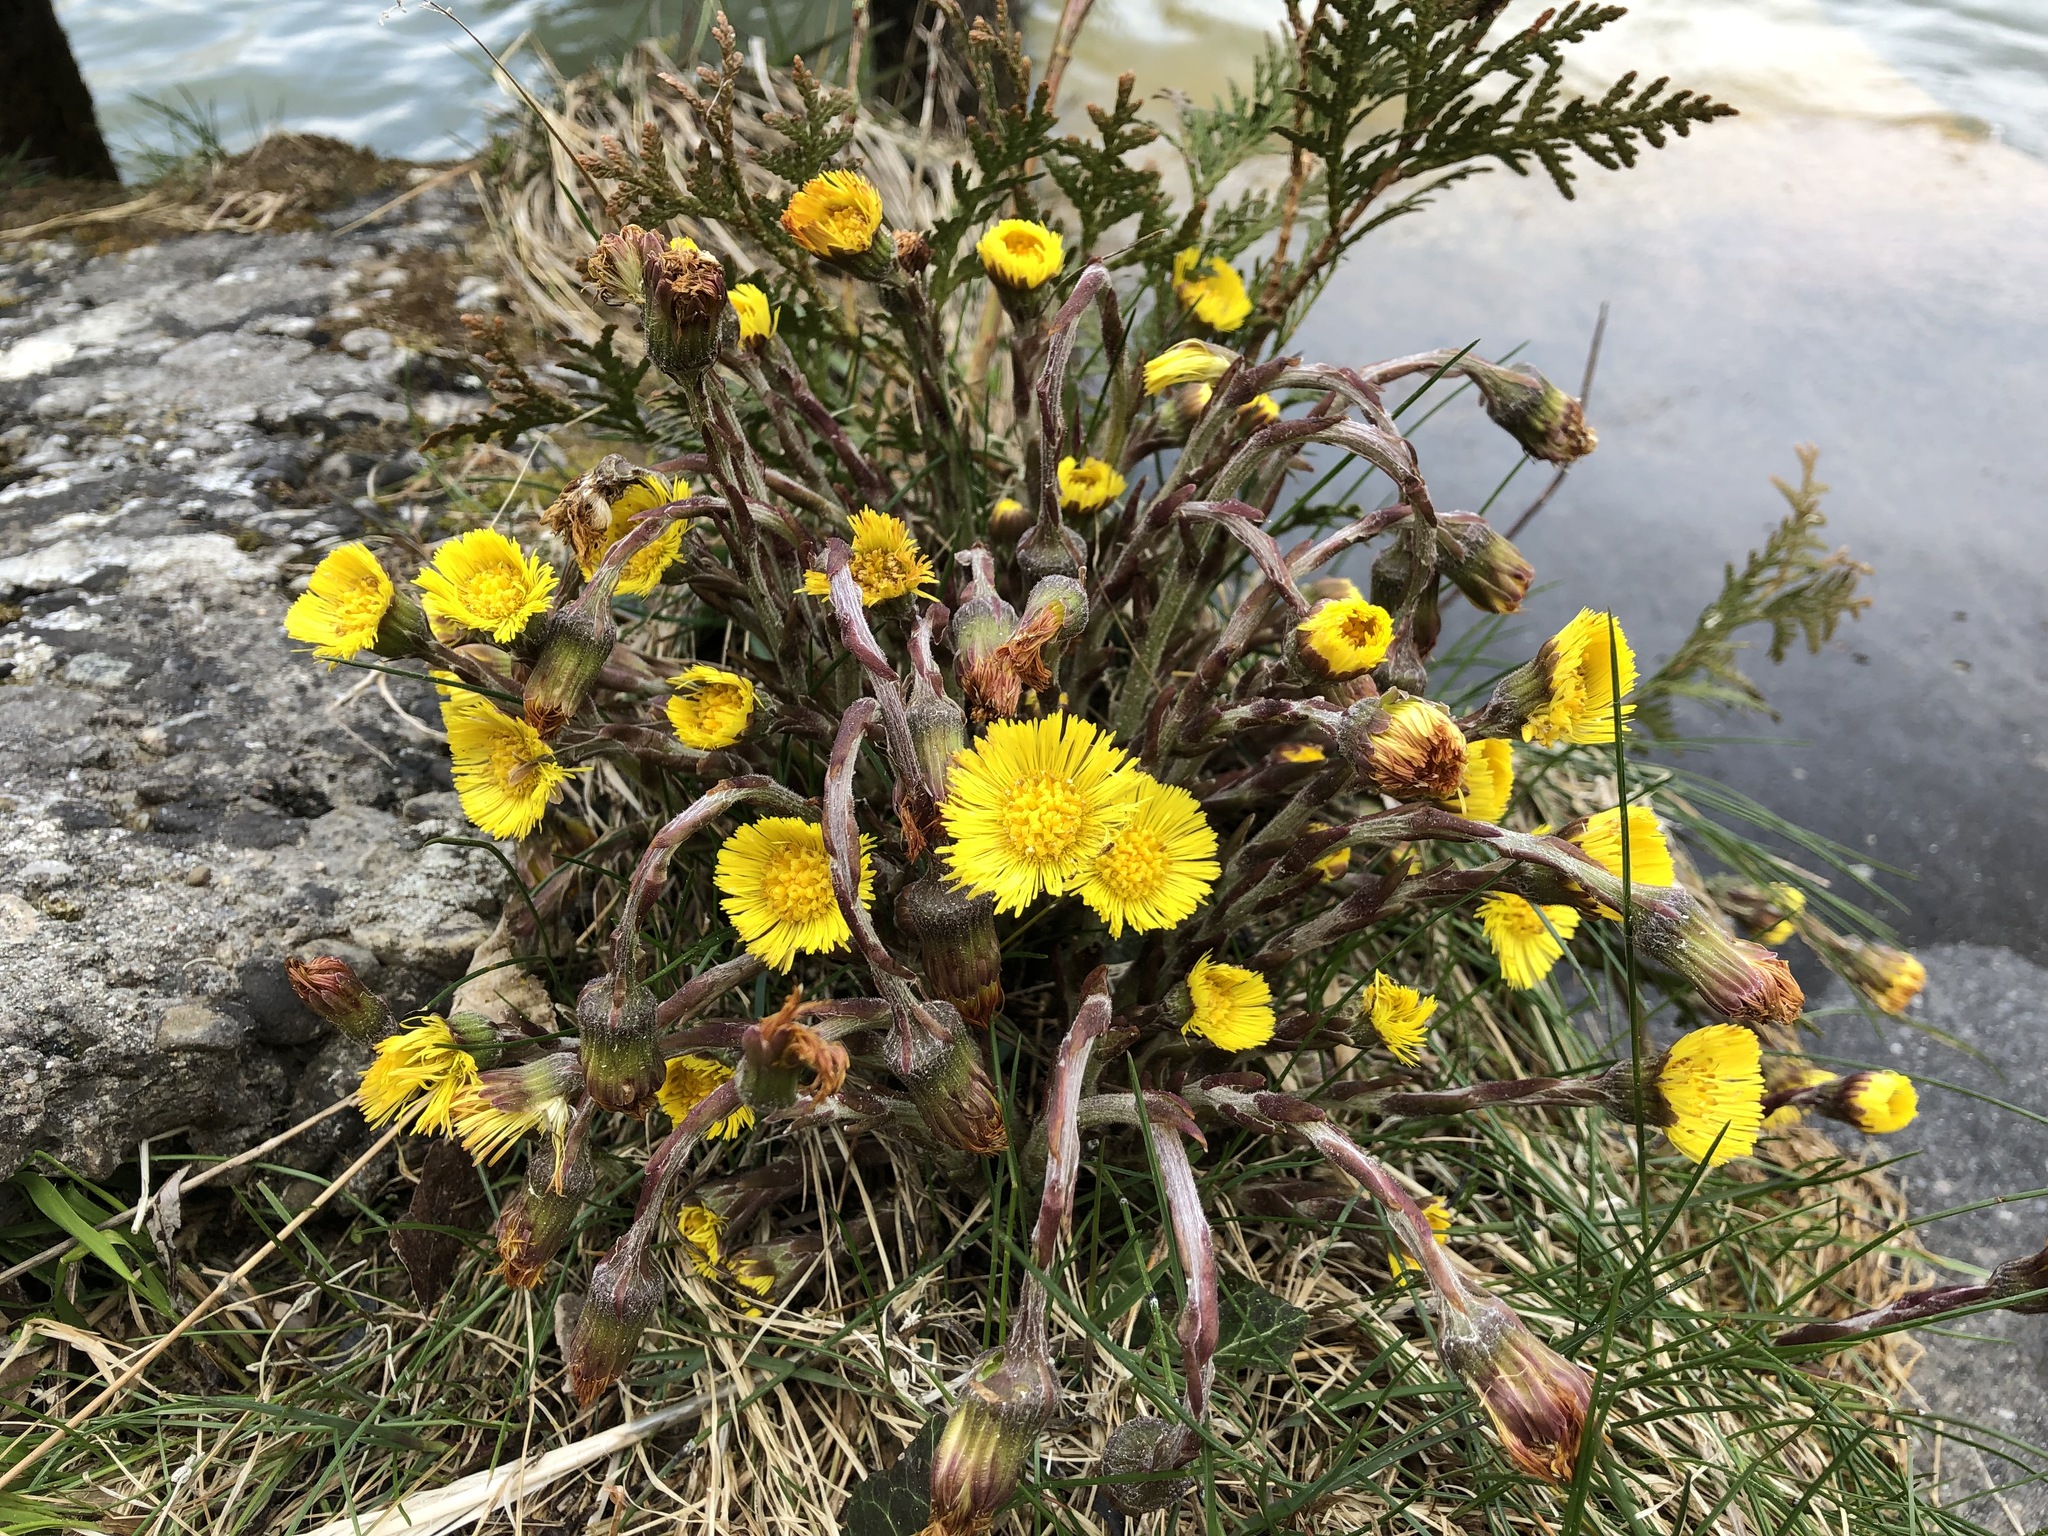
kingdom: Plantae
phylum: Tracheophyta
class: Magnoliopsida
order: Asterales
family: Asteraceae
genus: Tussilago
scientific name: Tussilago farfara
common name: Coltsfoot
